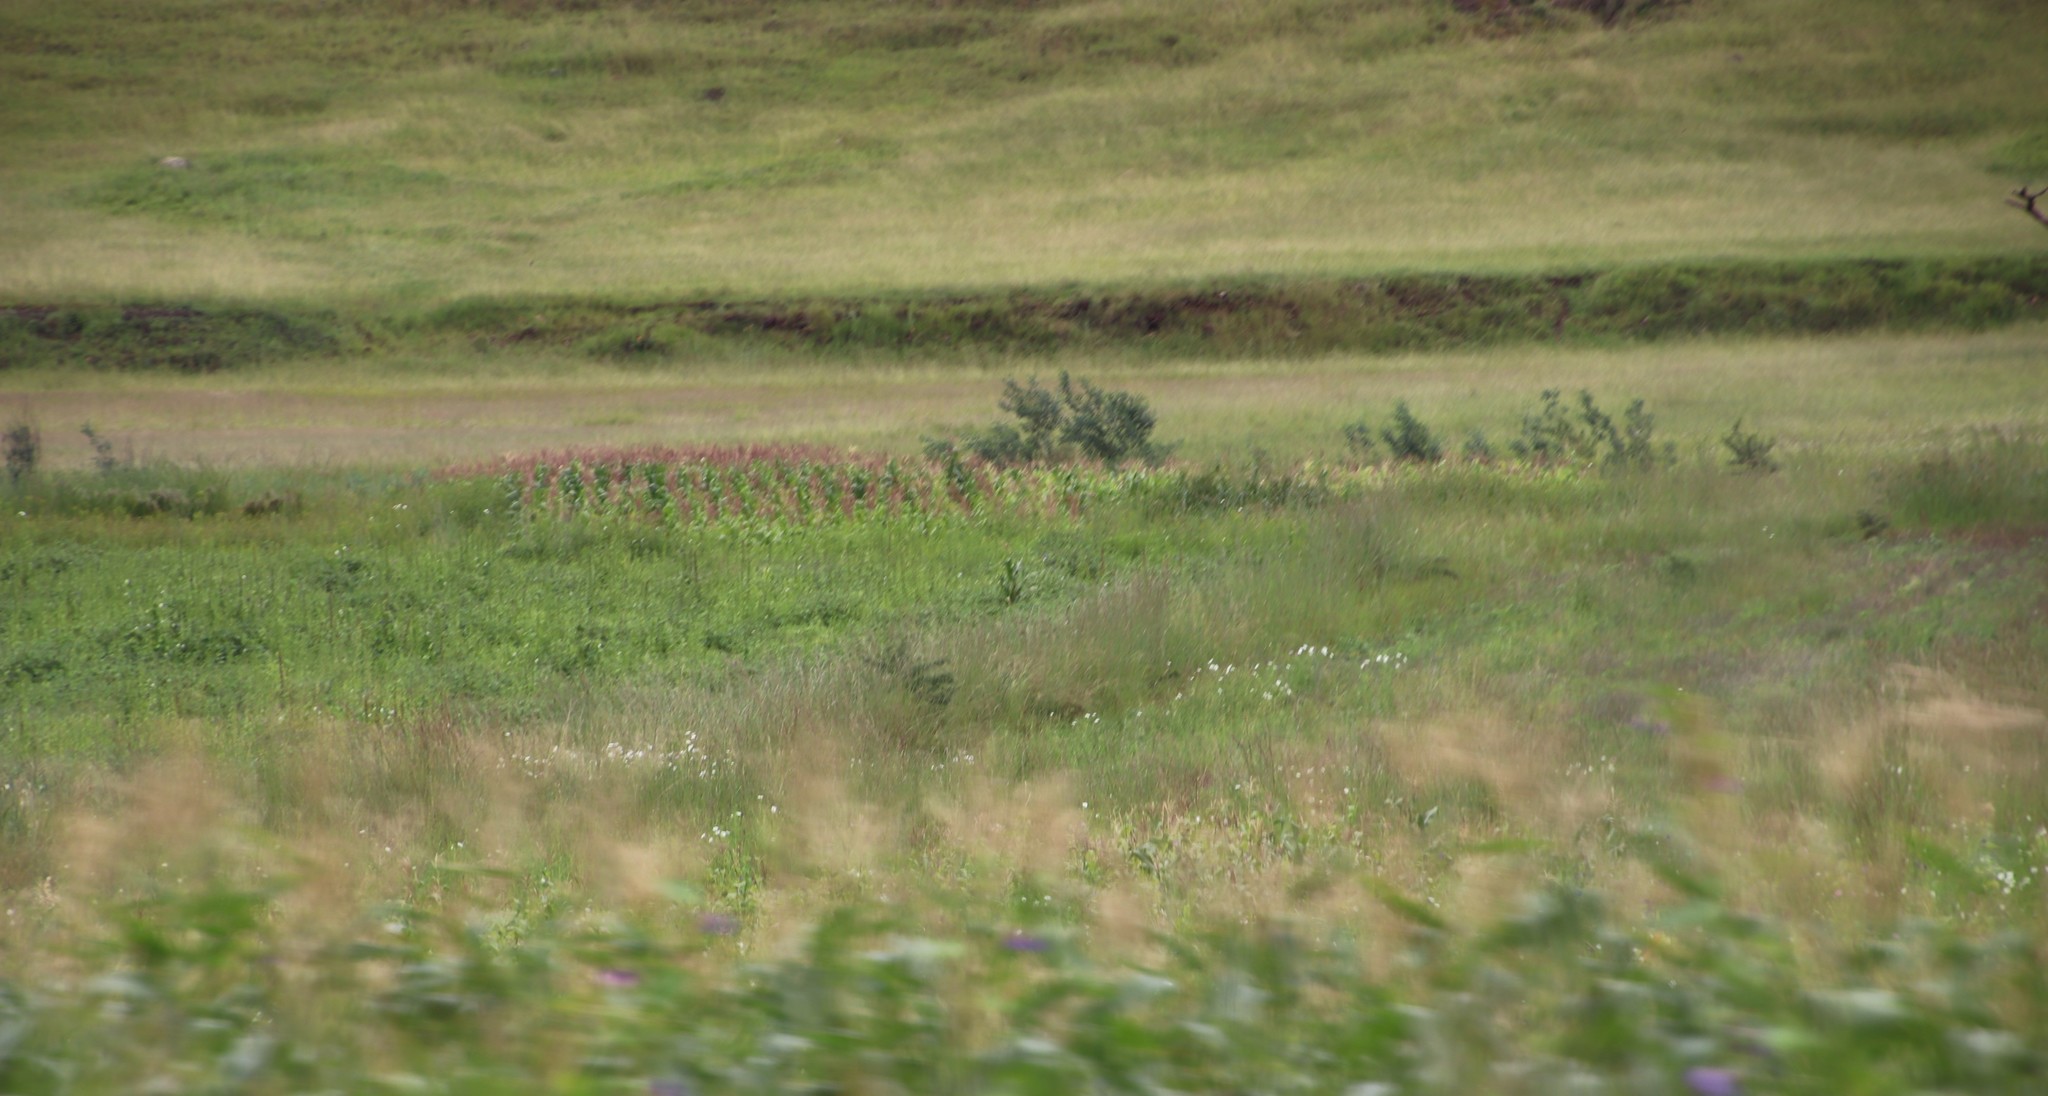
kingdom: Plantae
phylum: Tracheophyta
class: Magnoliopsida
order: Asterales
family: Asteraceae
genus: Cosmos
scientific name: Cosmos bipinnatus
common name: Garden cosmos
